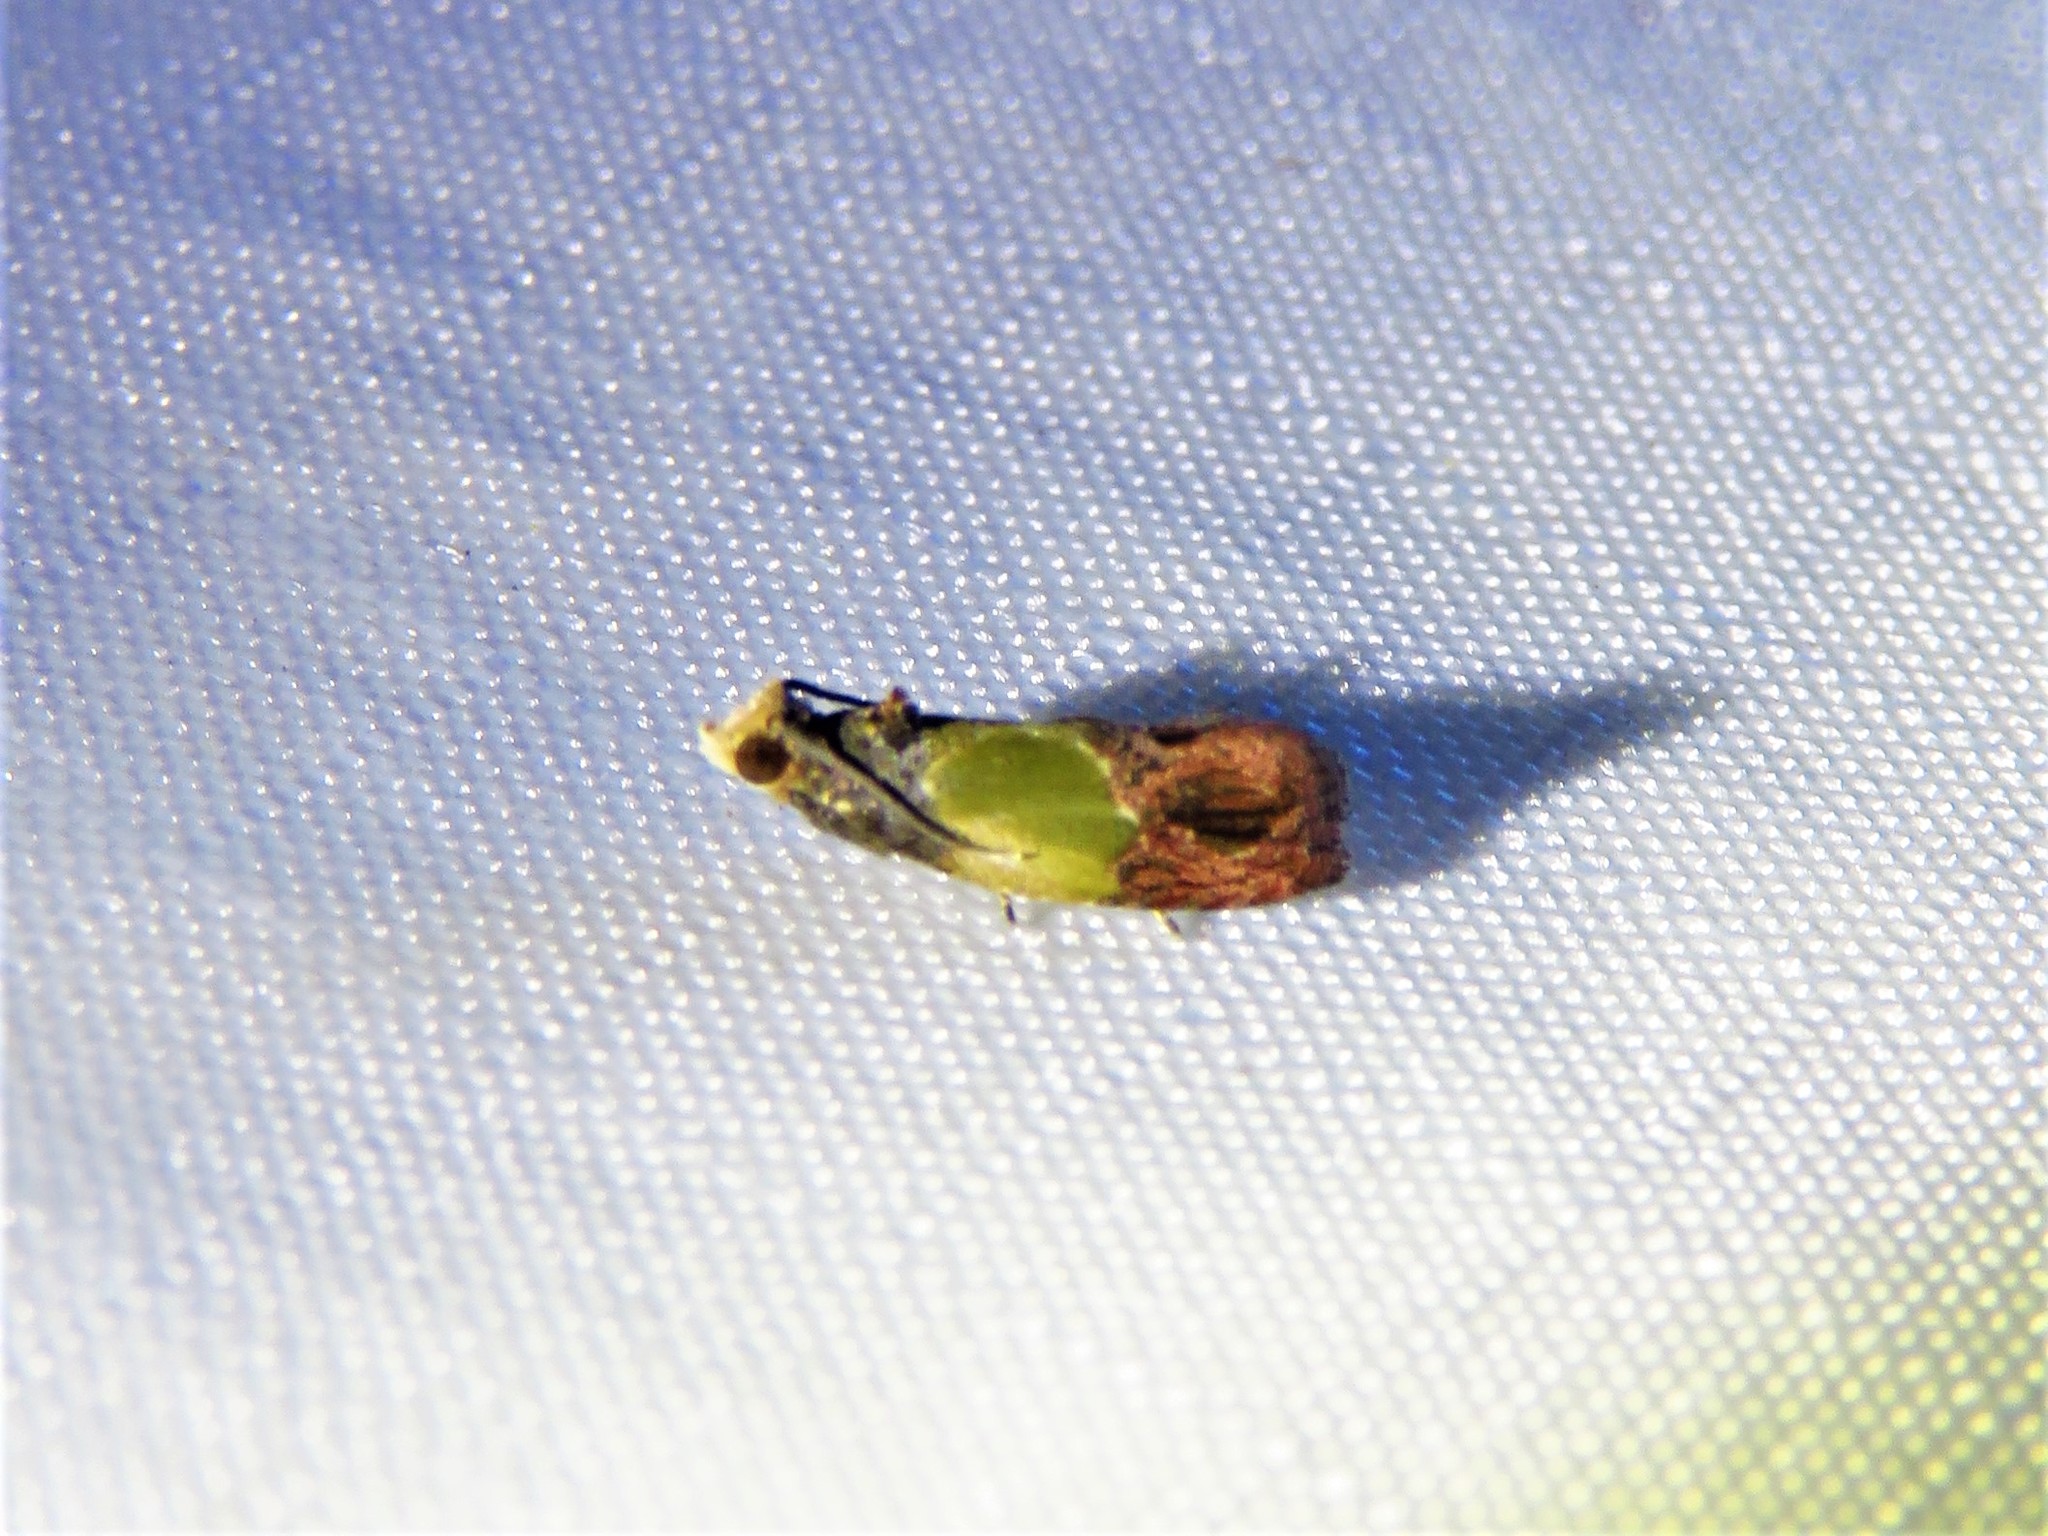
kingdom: Animalia
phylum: Arthropoda
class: Insecta
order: Lepidoptera
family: Tortricidae
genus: Eumarozia
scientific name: Eumarozia malachitana
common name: Sculptured moth
